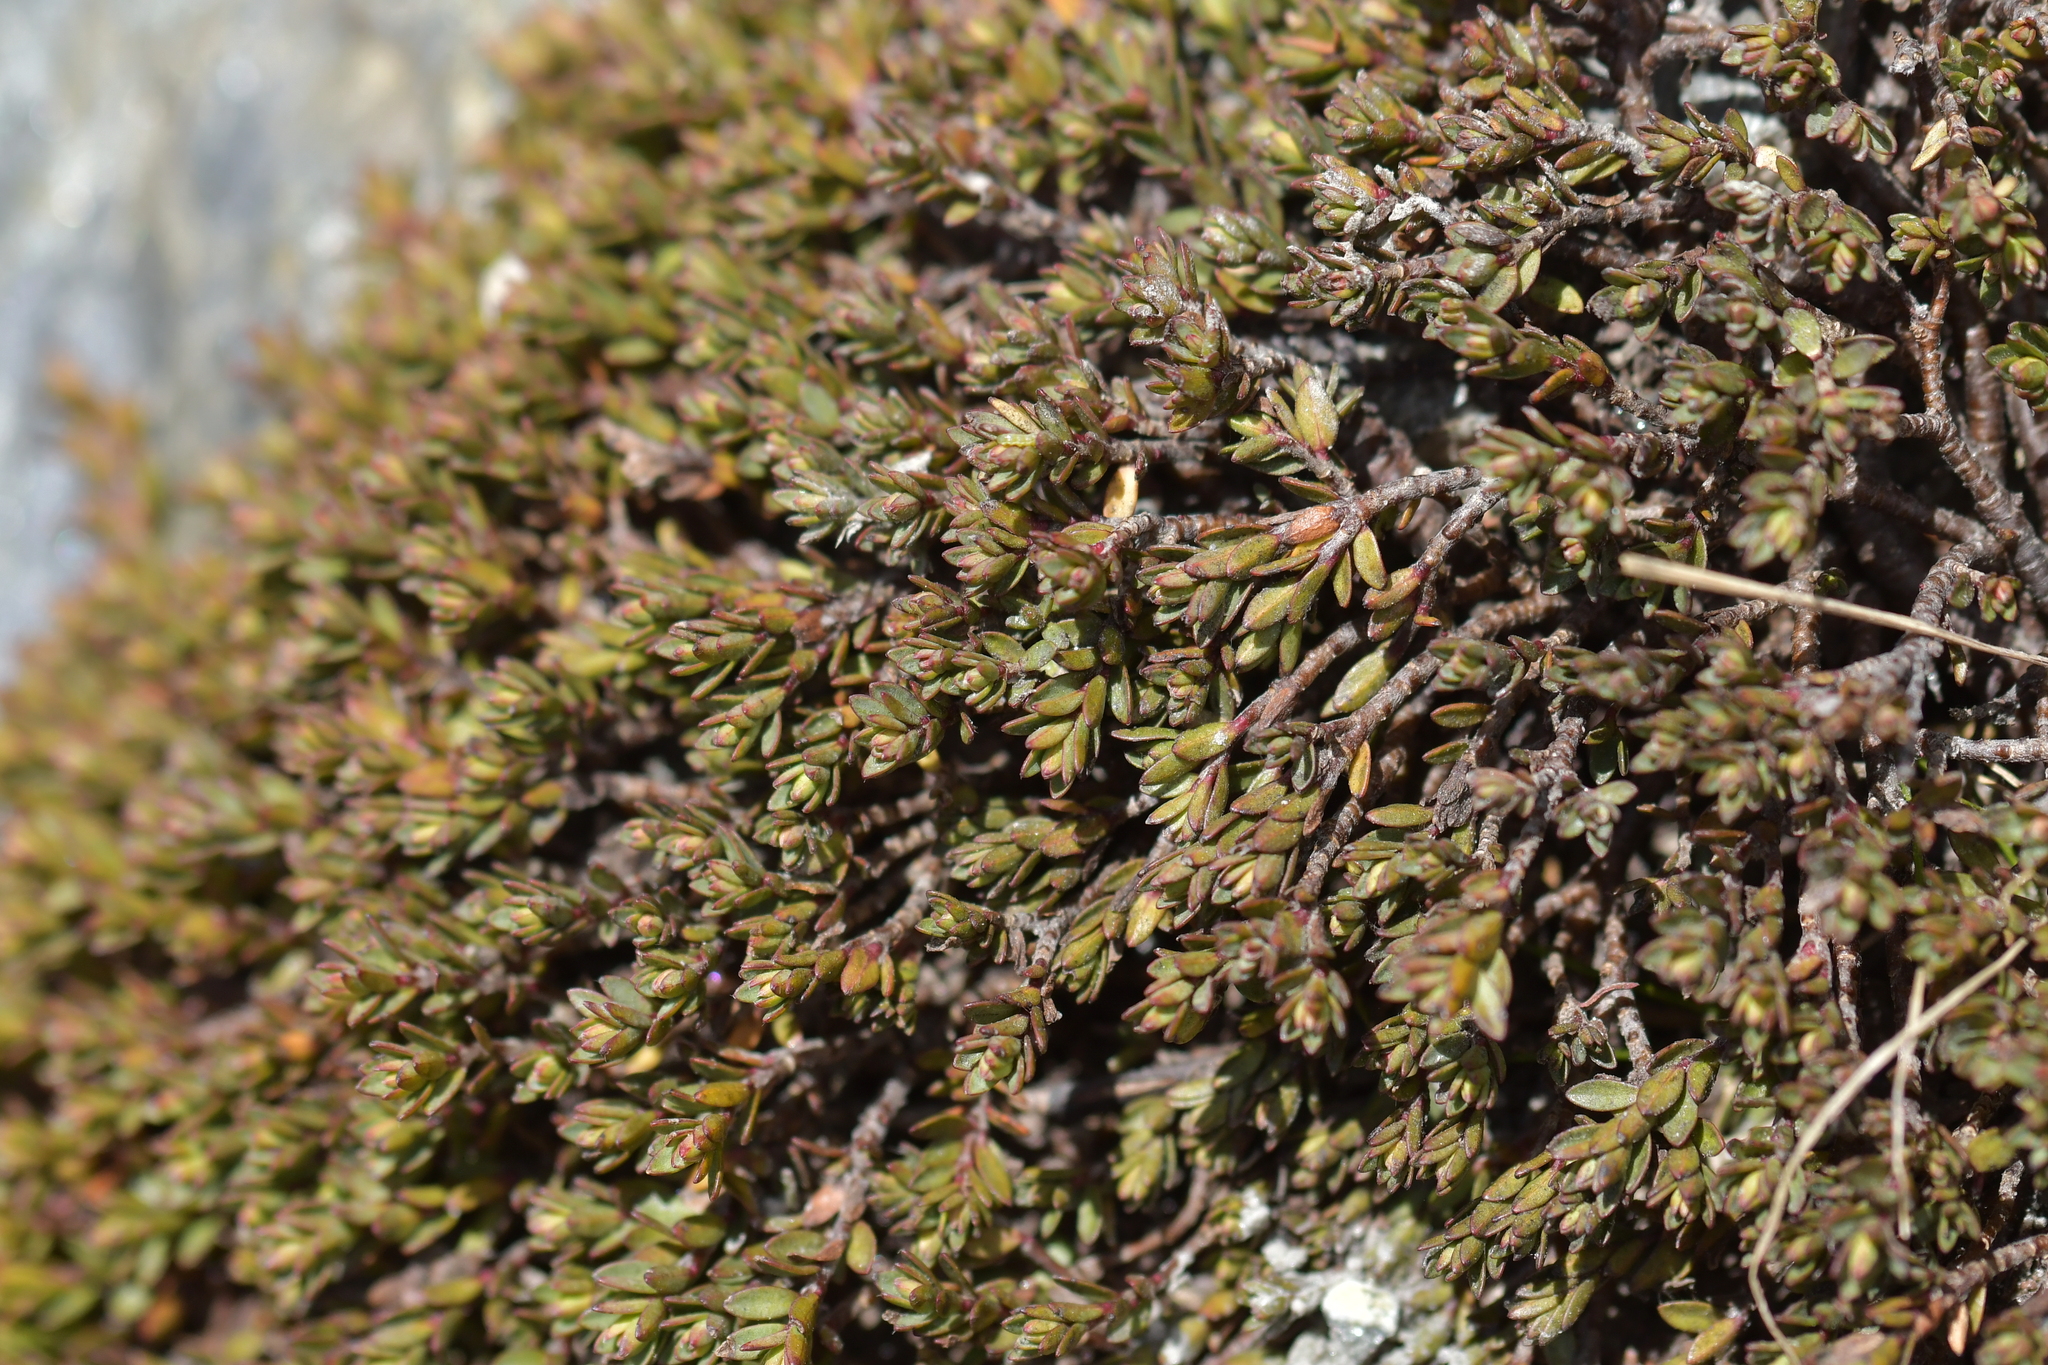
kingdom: Plantae
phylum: Tracheophyta
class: Magnoliopsida
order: Malvales
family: Thymelaeaceae
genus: Pimelea
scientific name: Pimelea notia
